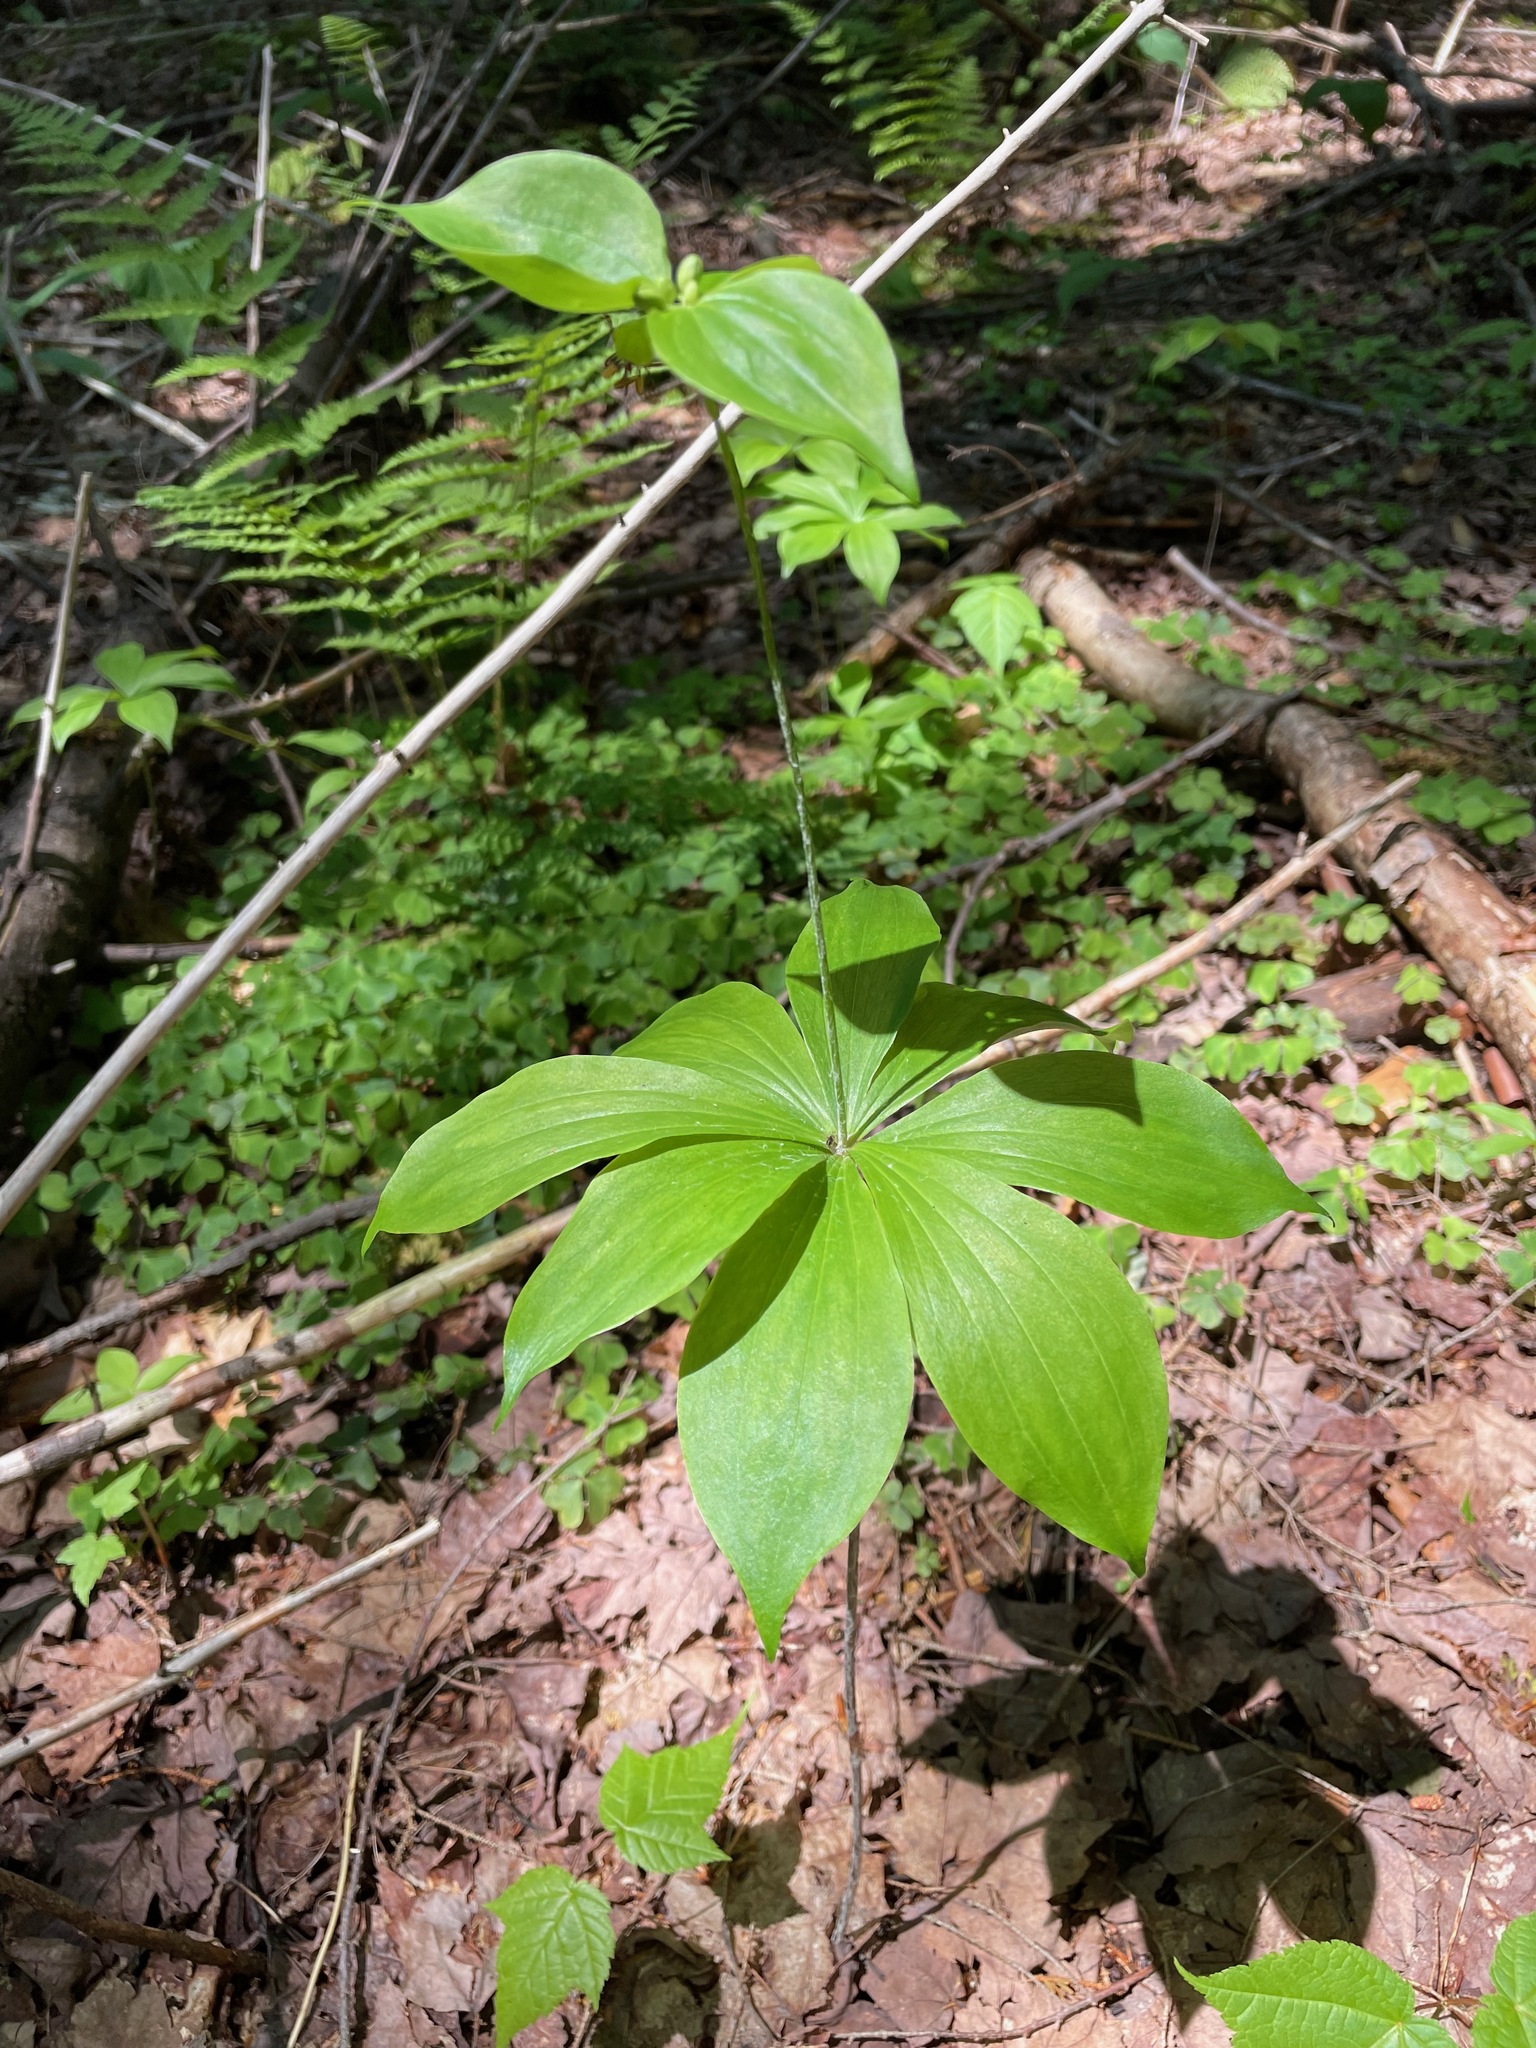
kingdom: Plantae
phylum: Tracheophyta
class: Liliopsida
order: Liliales
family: Liliaceae
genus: Medeola
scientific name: Medeola virginiana
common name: Indian cucumber-root
